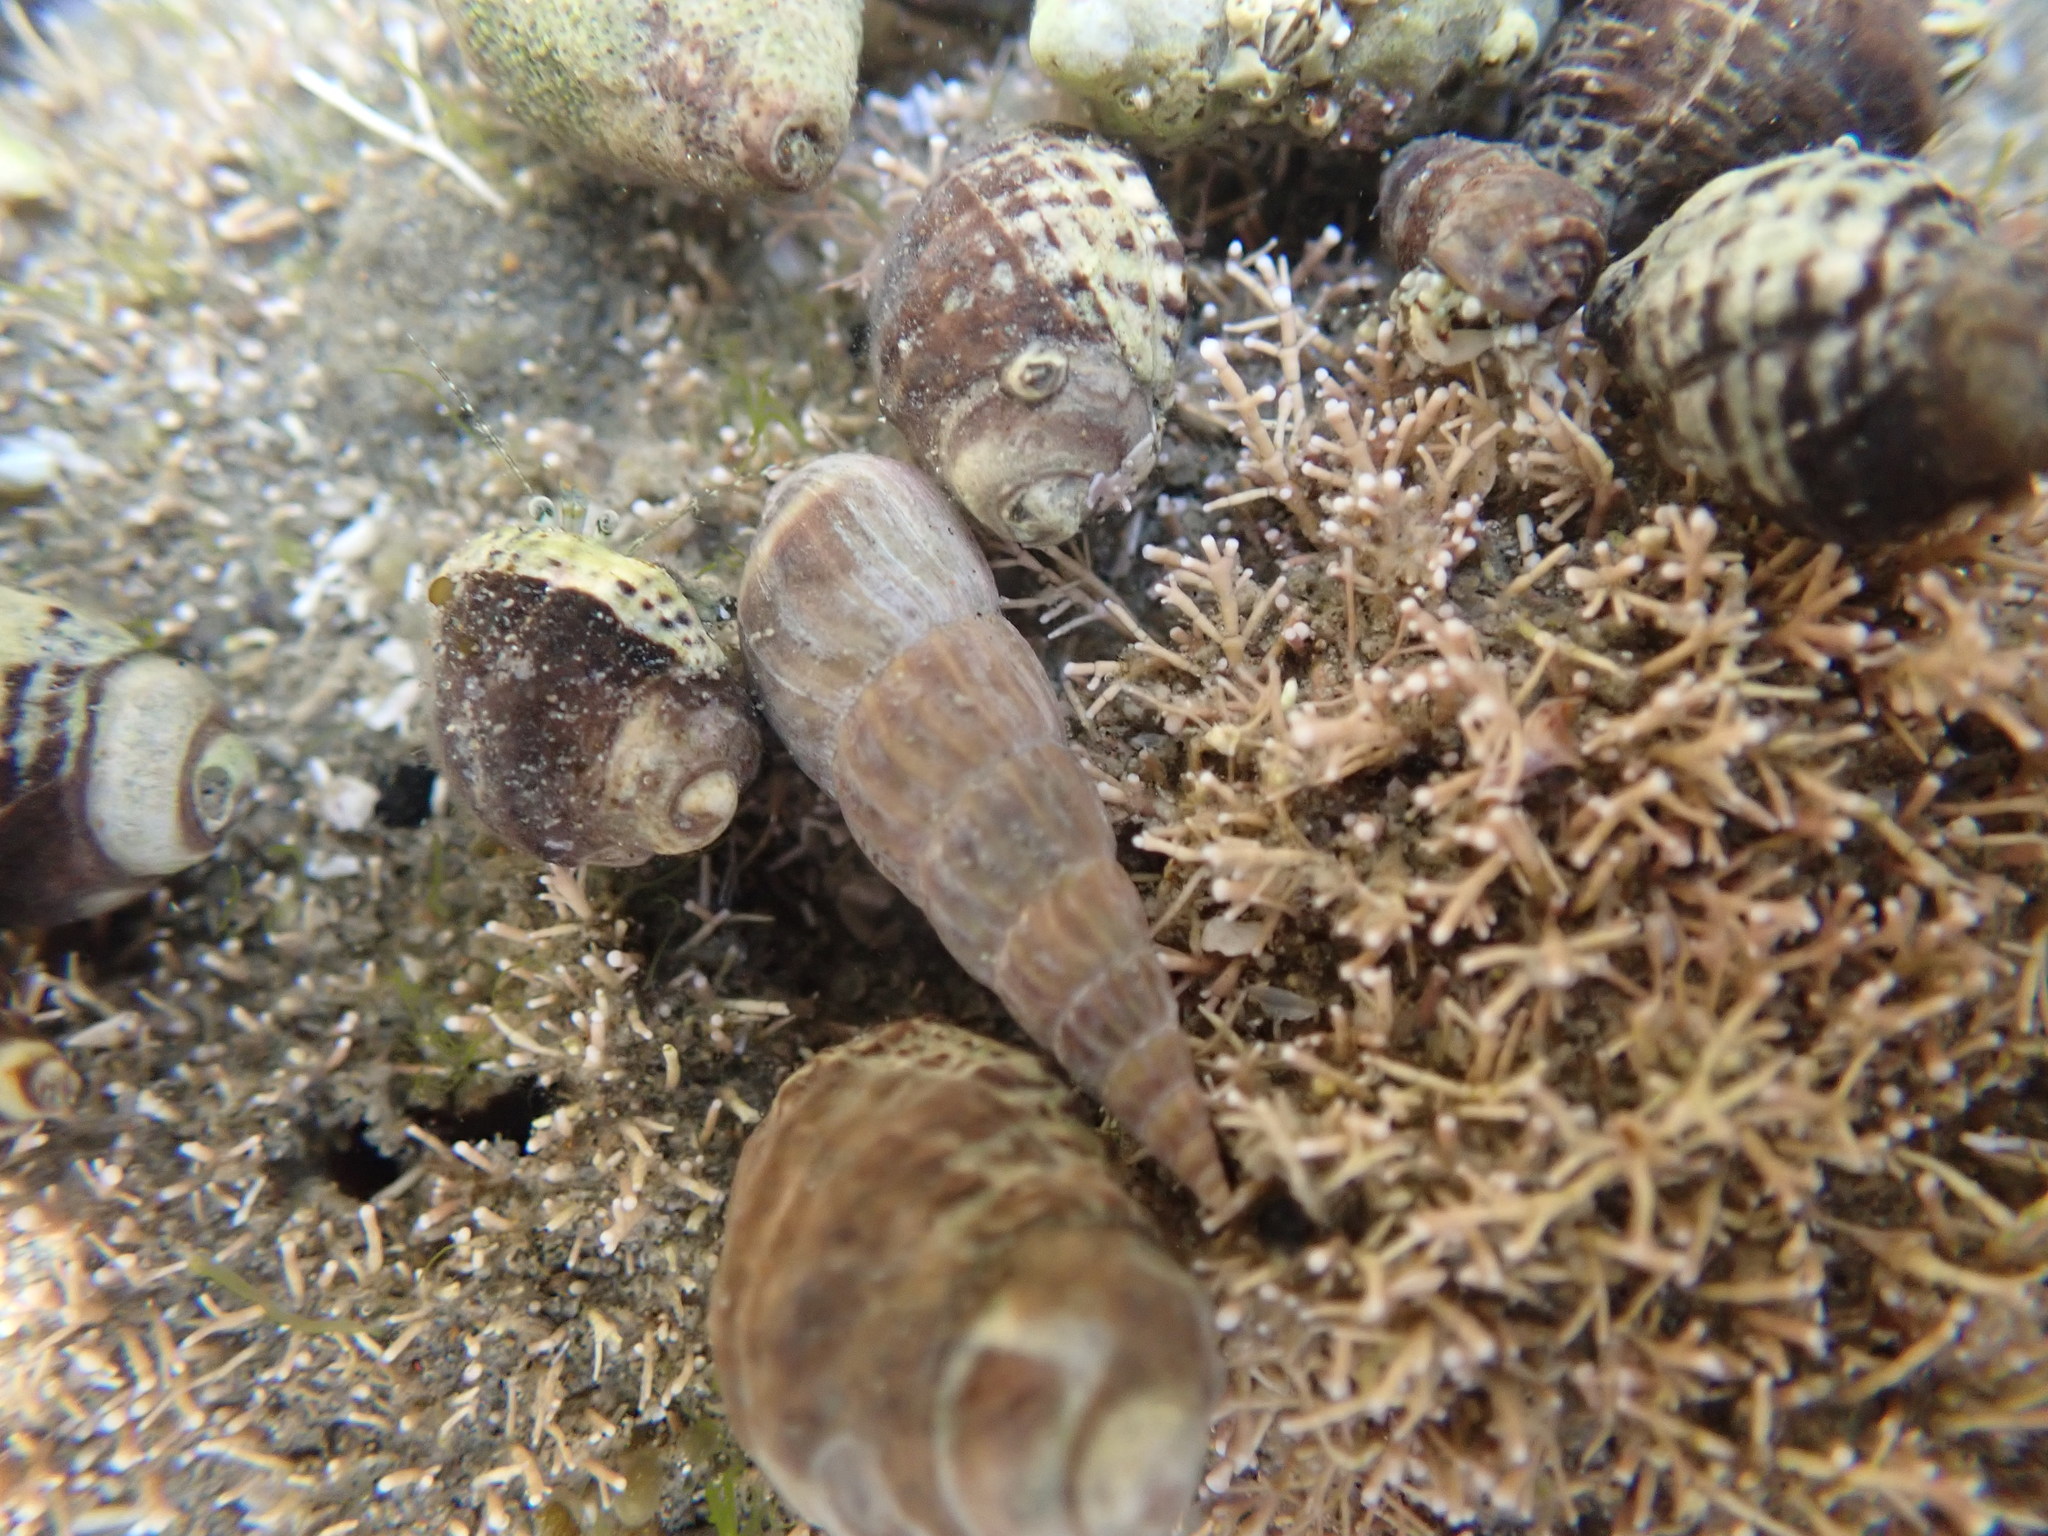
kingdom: Animalia
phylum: Mollusca
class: Gastropoda
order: Neogastropoda
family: Terebridae
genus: Duplicaria
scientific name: Duplicaria tristis
